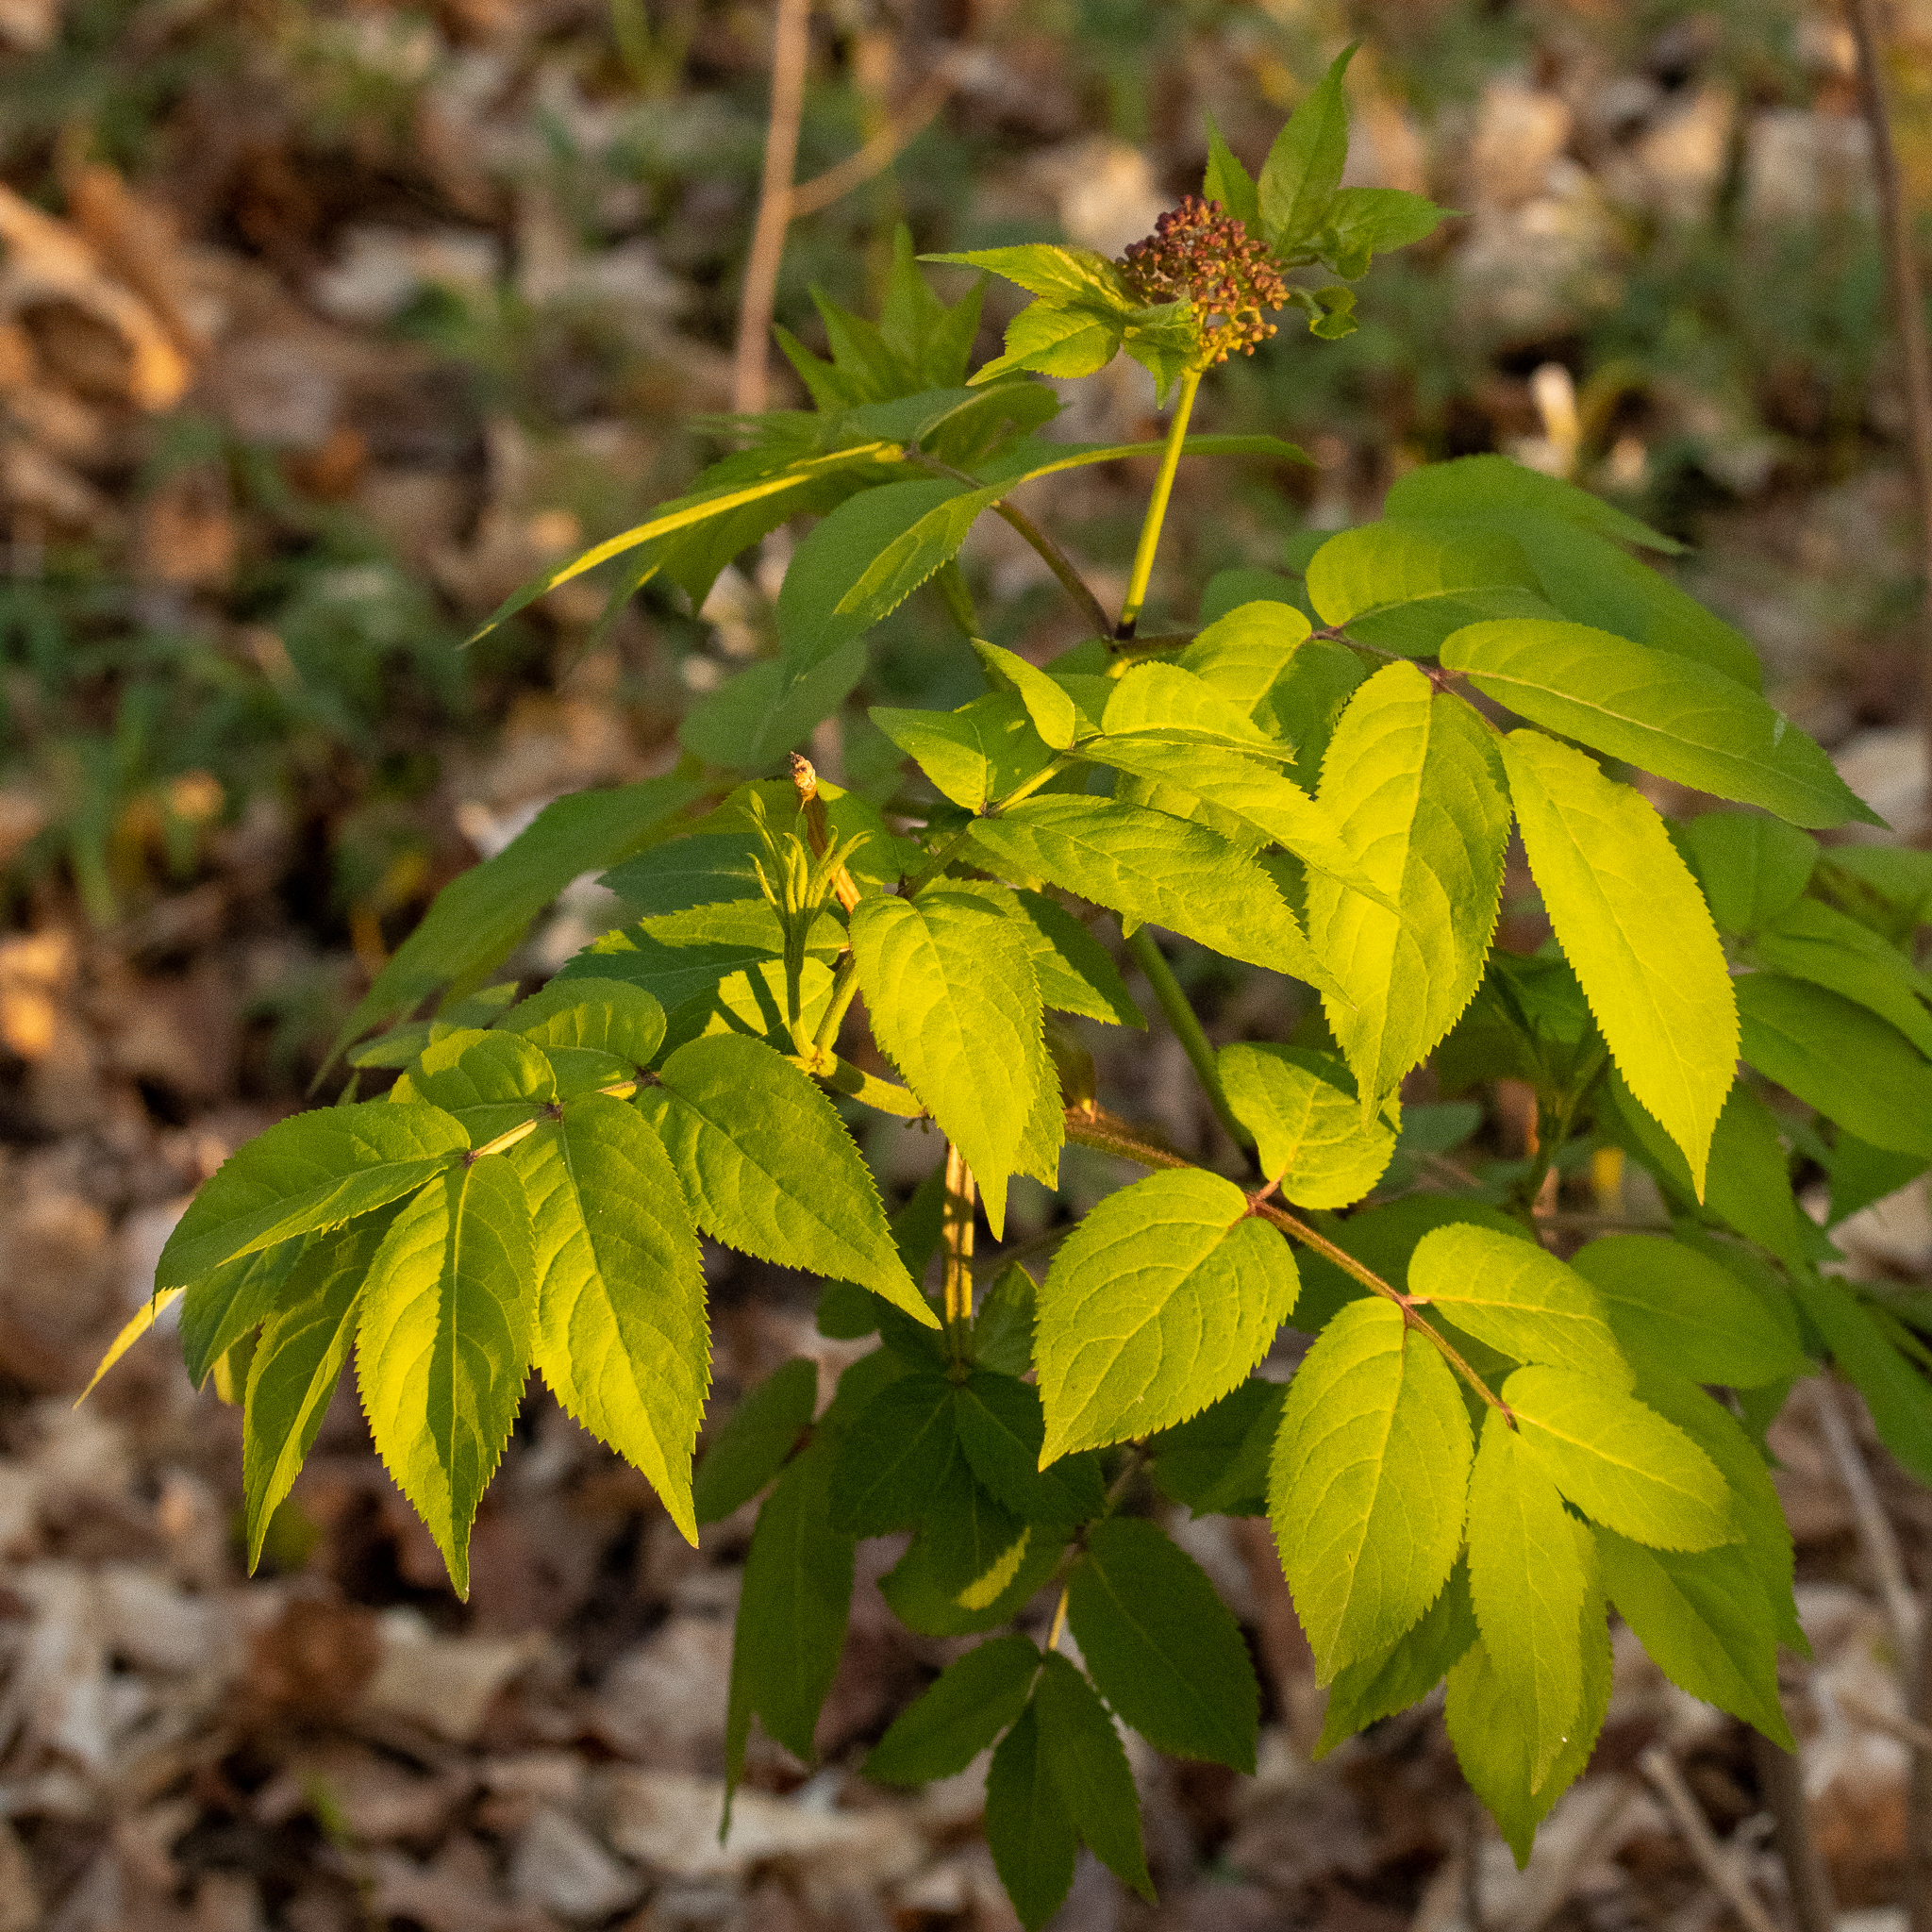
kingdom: Plantae
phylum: Tracheophyta
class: Magnoliopsida
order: Dipsacales
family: Viburnaceae
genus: Sambucus
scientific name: Sambucus racemosa
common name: Red-berried elder
